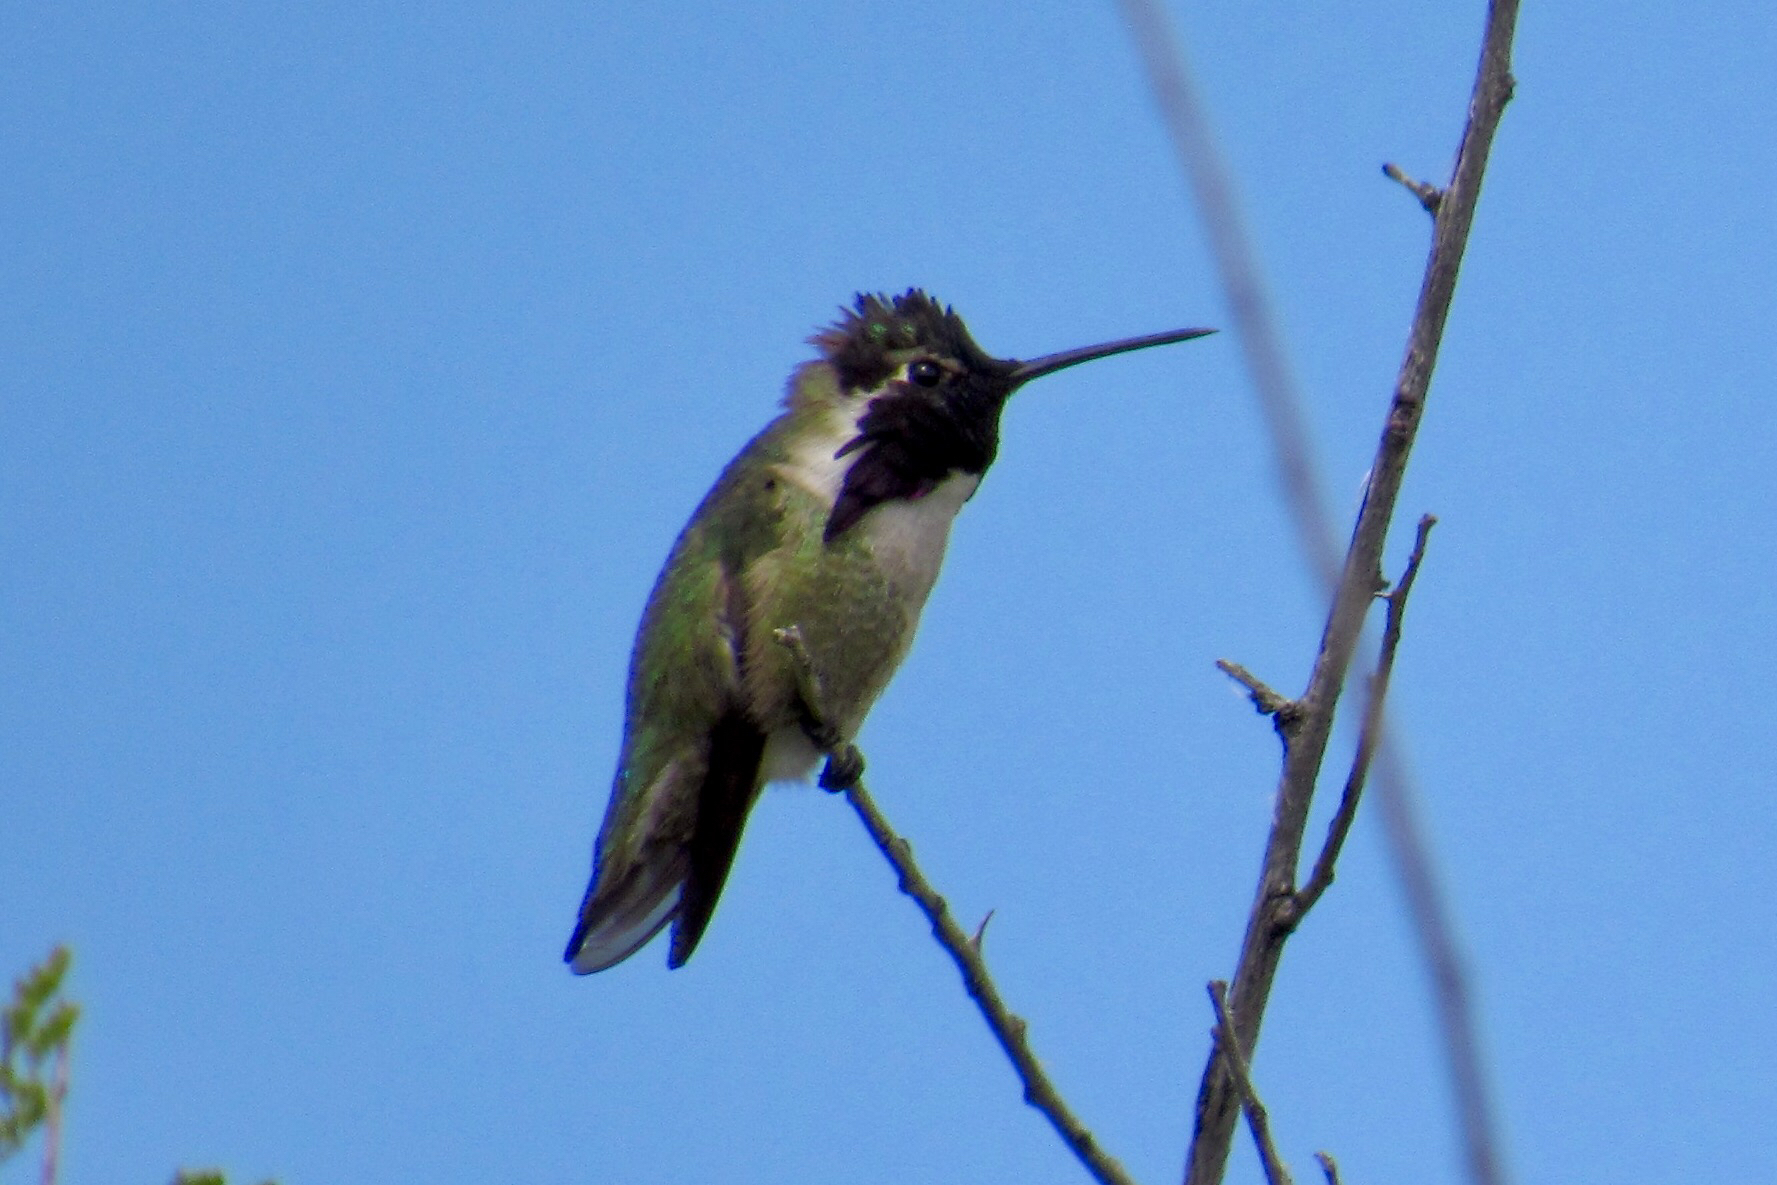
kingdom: Animalia
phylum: Chordata
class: Aves
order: Apodiformes
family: Trochilidae
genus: Calypte
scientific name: Calypte costae
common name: Costa's hummingbird
